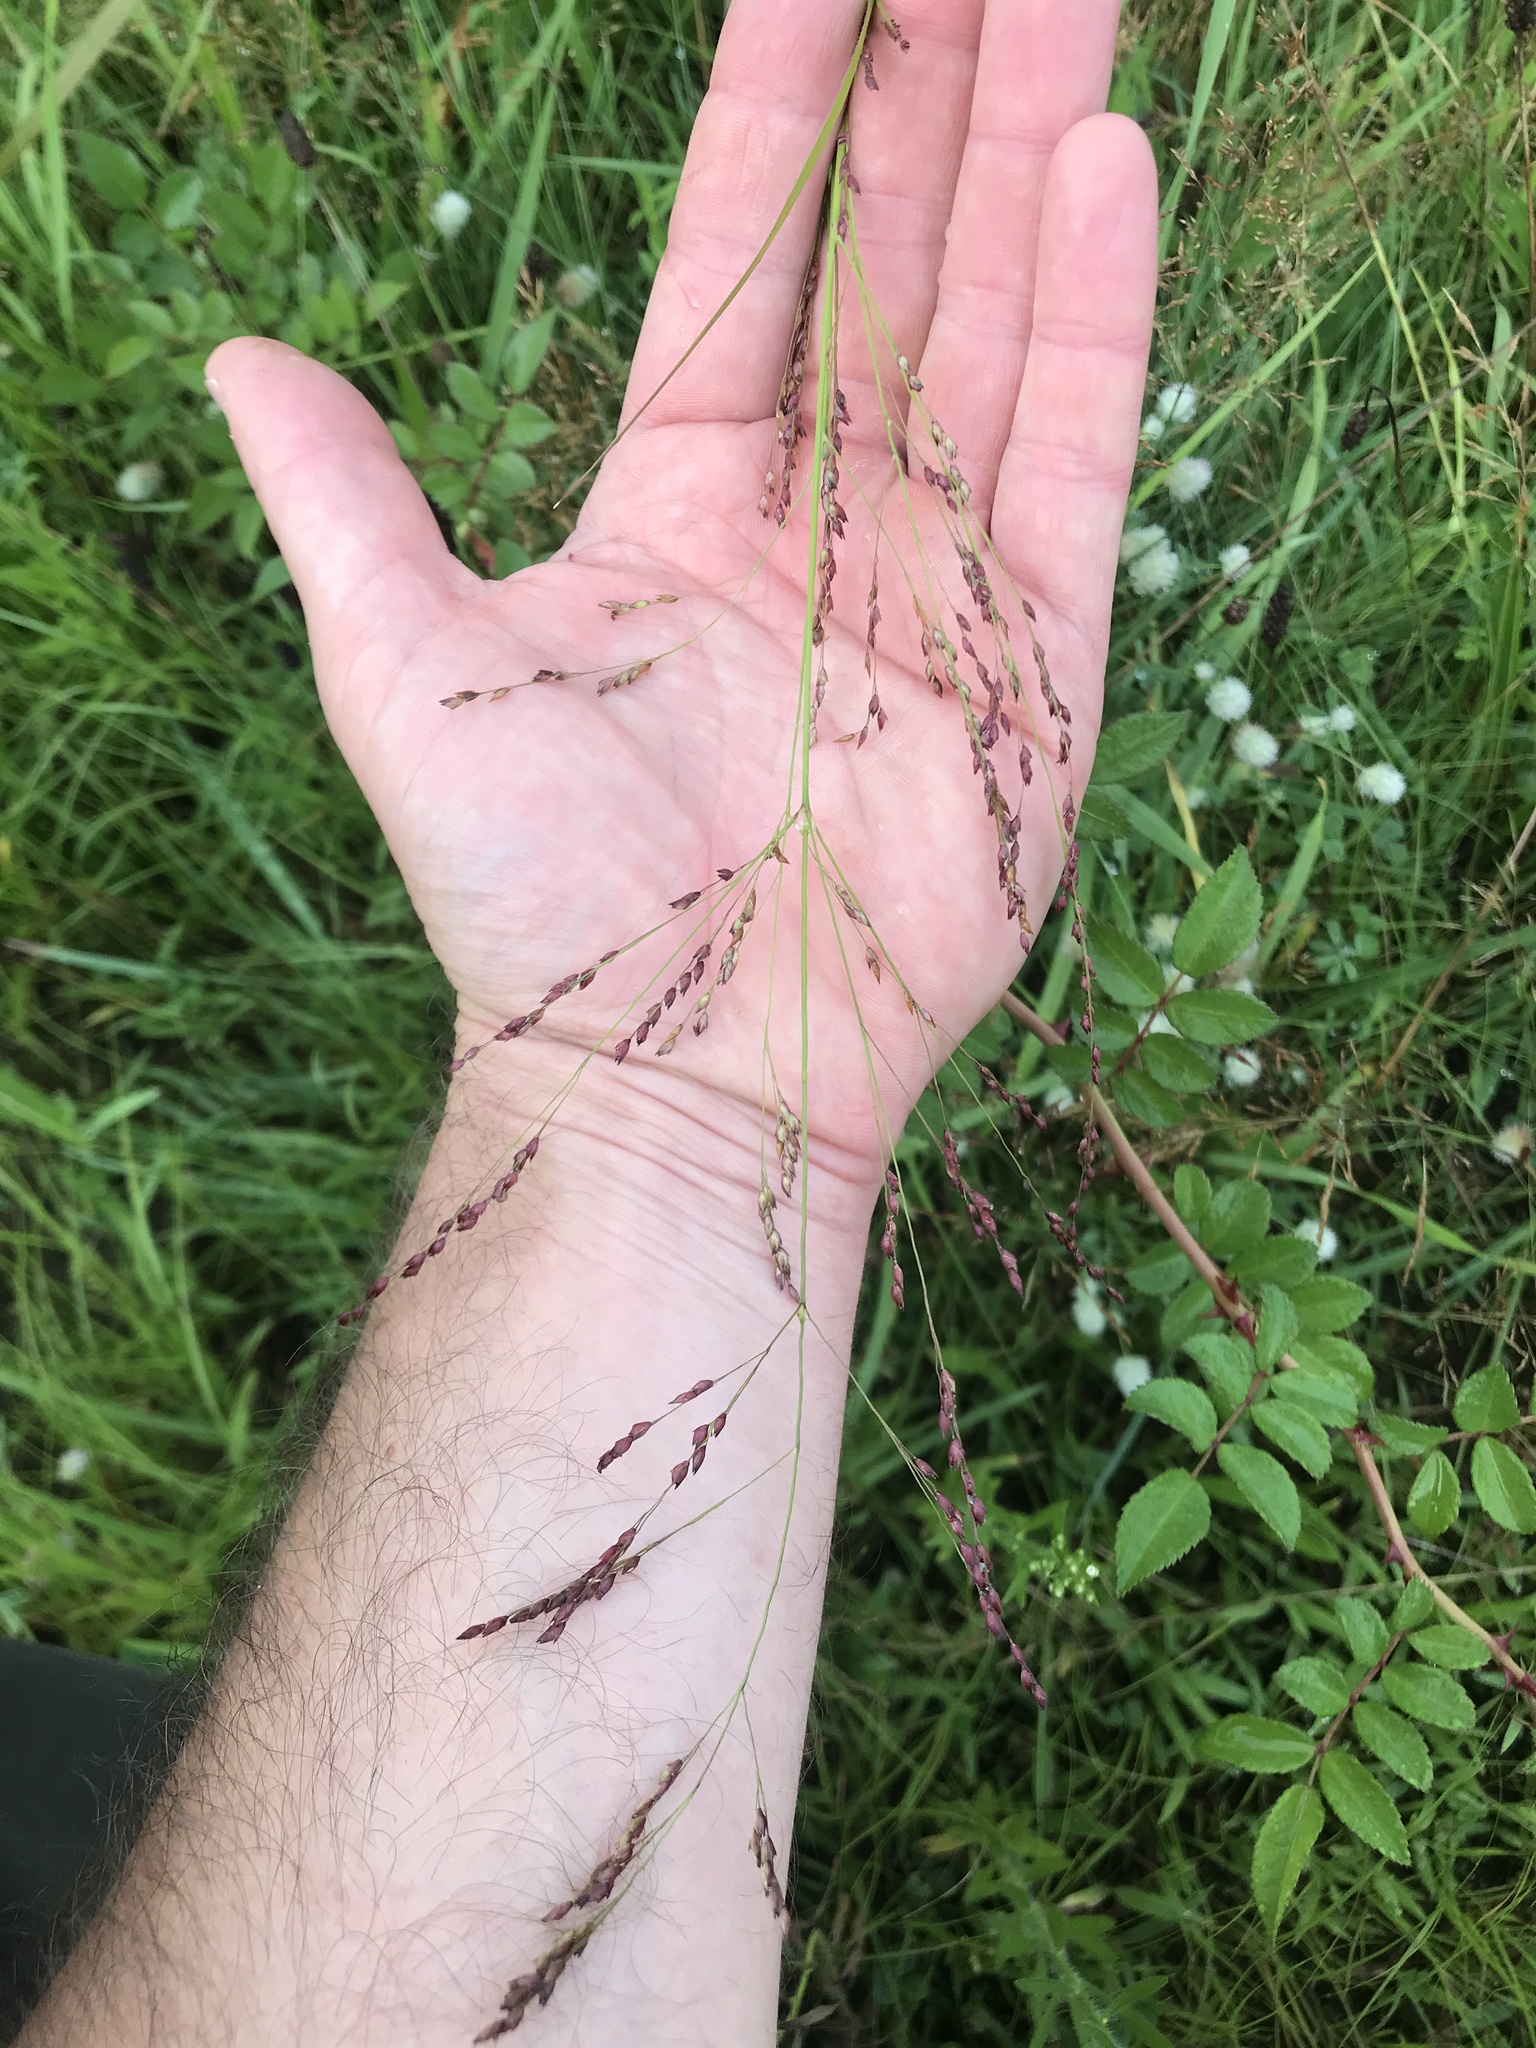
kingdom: Plantae
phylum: Tracheophyta
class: Liliopsida
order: Poales
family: Poaceae
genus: Panicum
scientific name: Panicum virgatum
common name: Switchgrass
